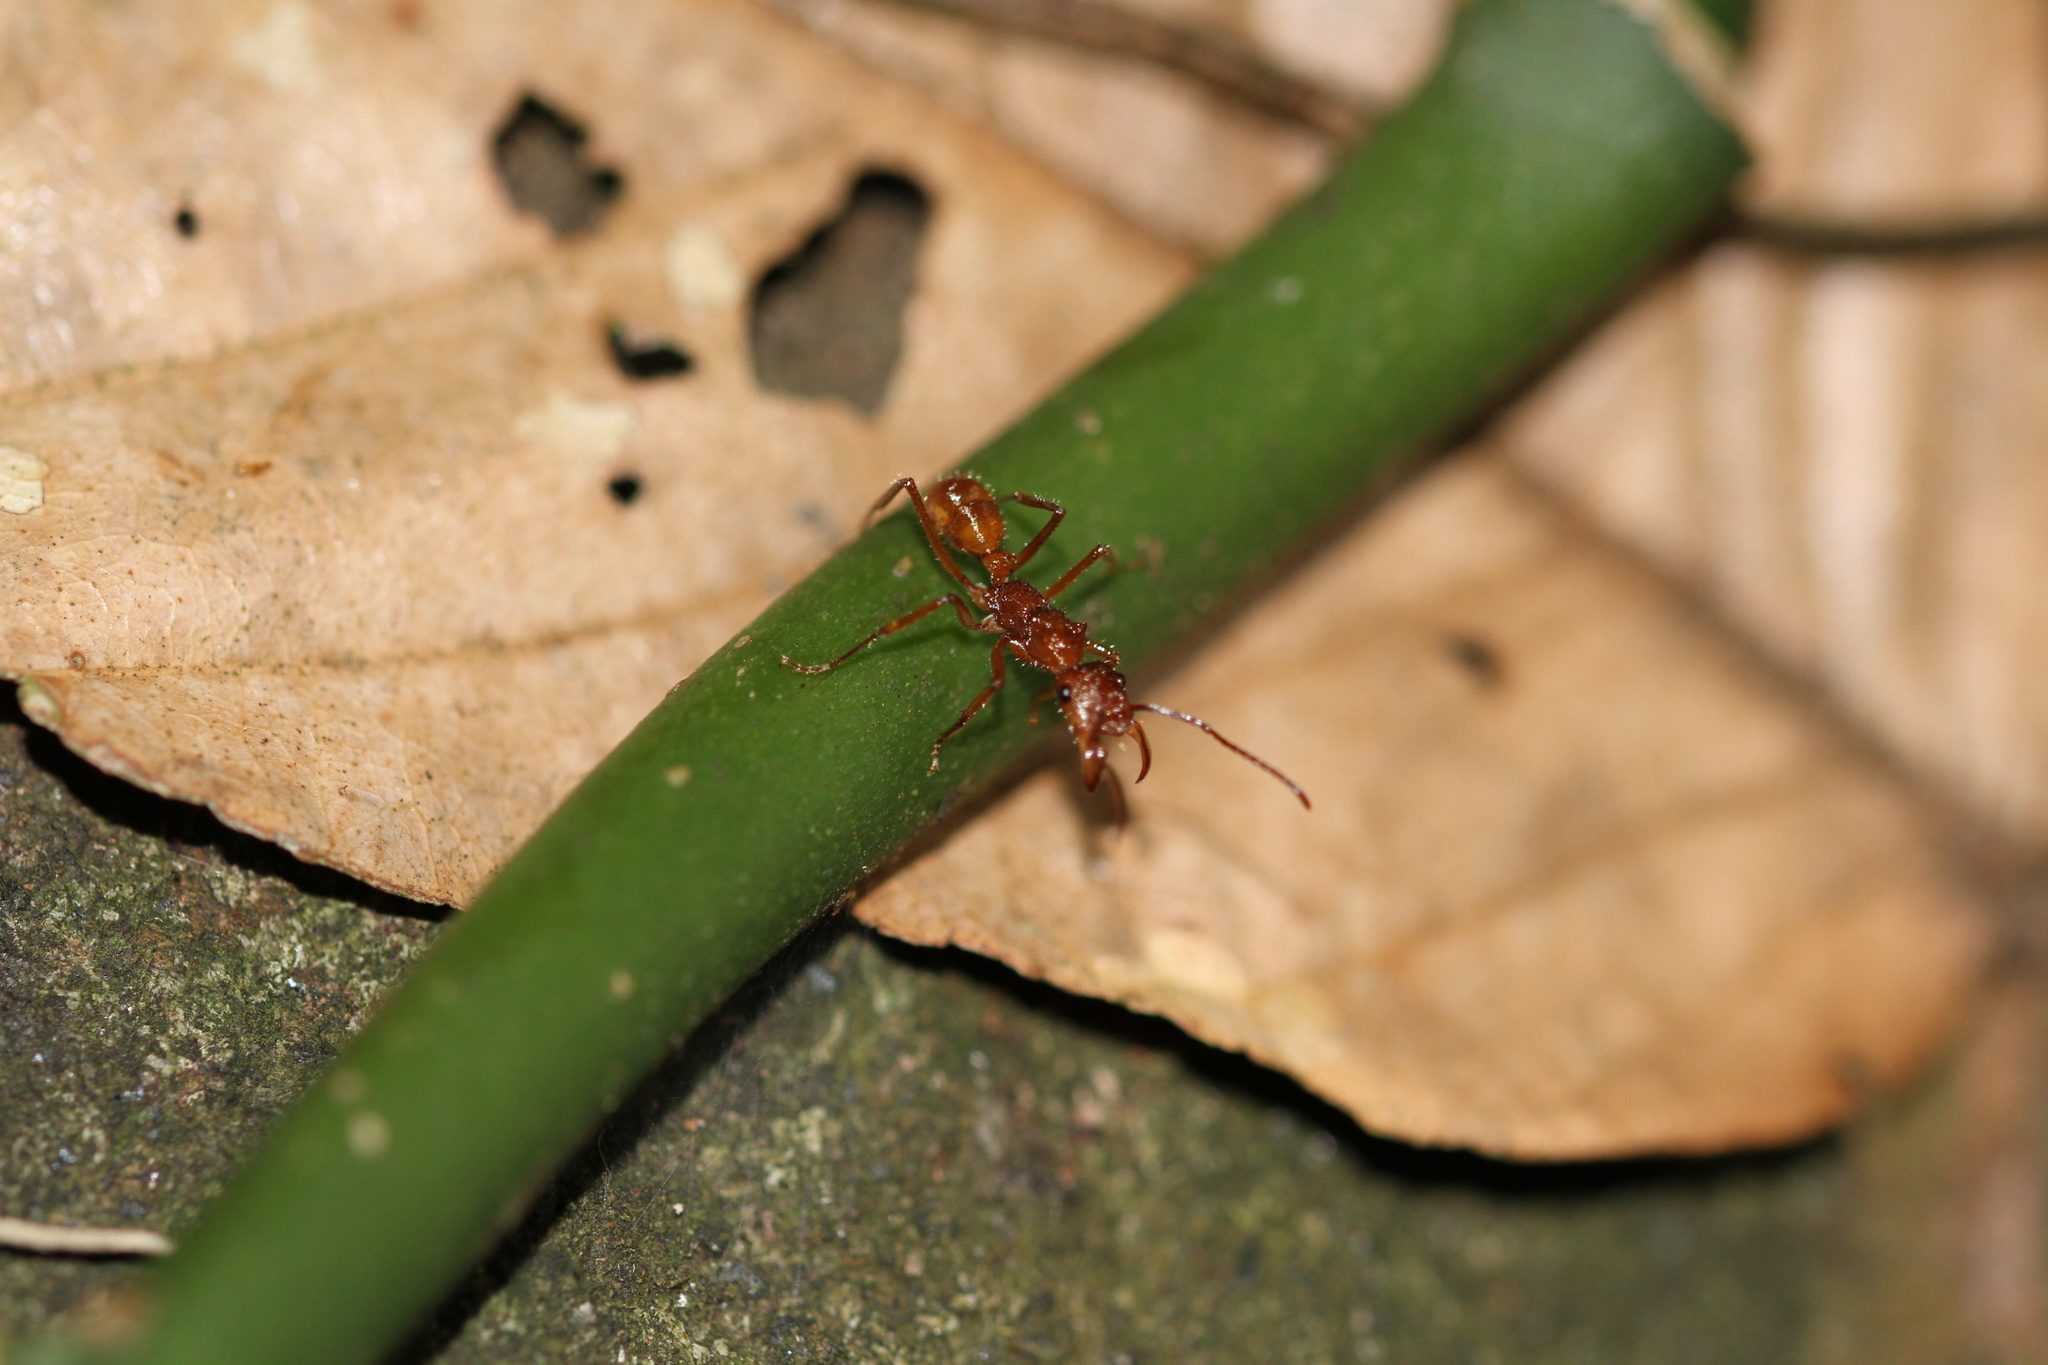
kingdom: Animalia
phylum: Arthropoda
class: Insecta
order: Hymenoptera
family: Formicidae
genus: Ectatomma
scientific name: Ectatomma tuberculatum
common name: Ant
